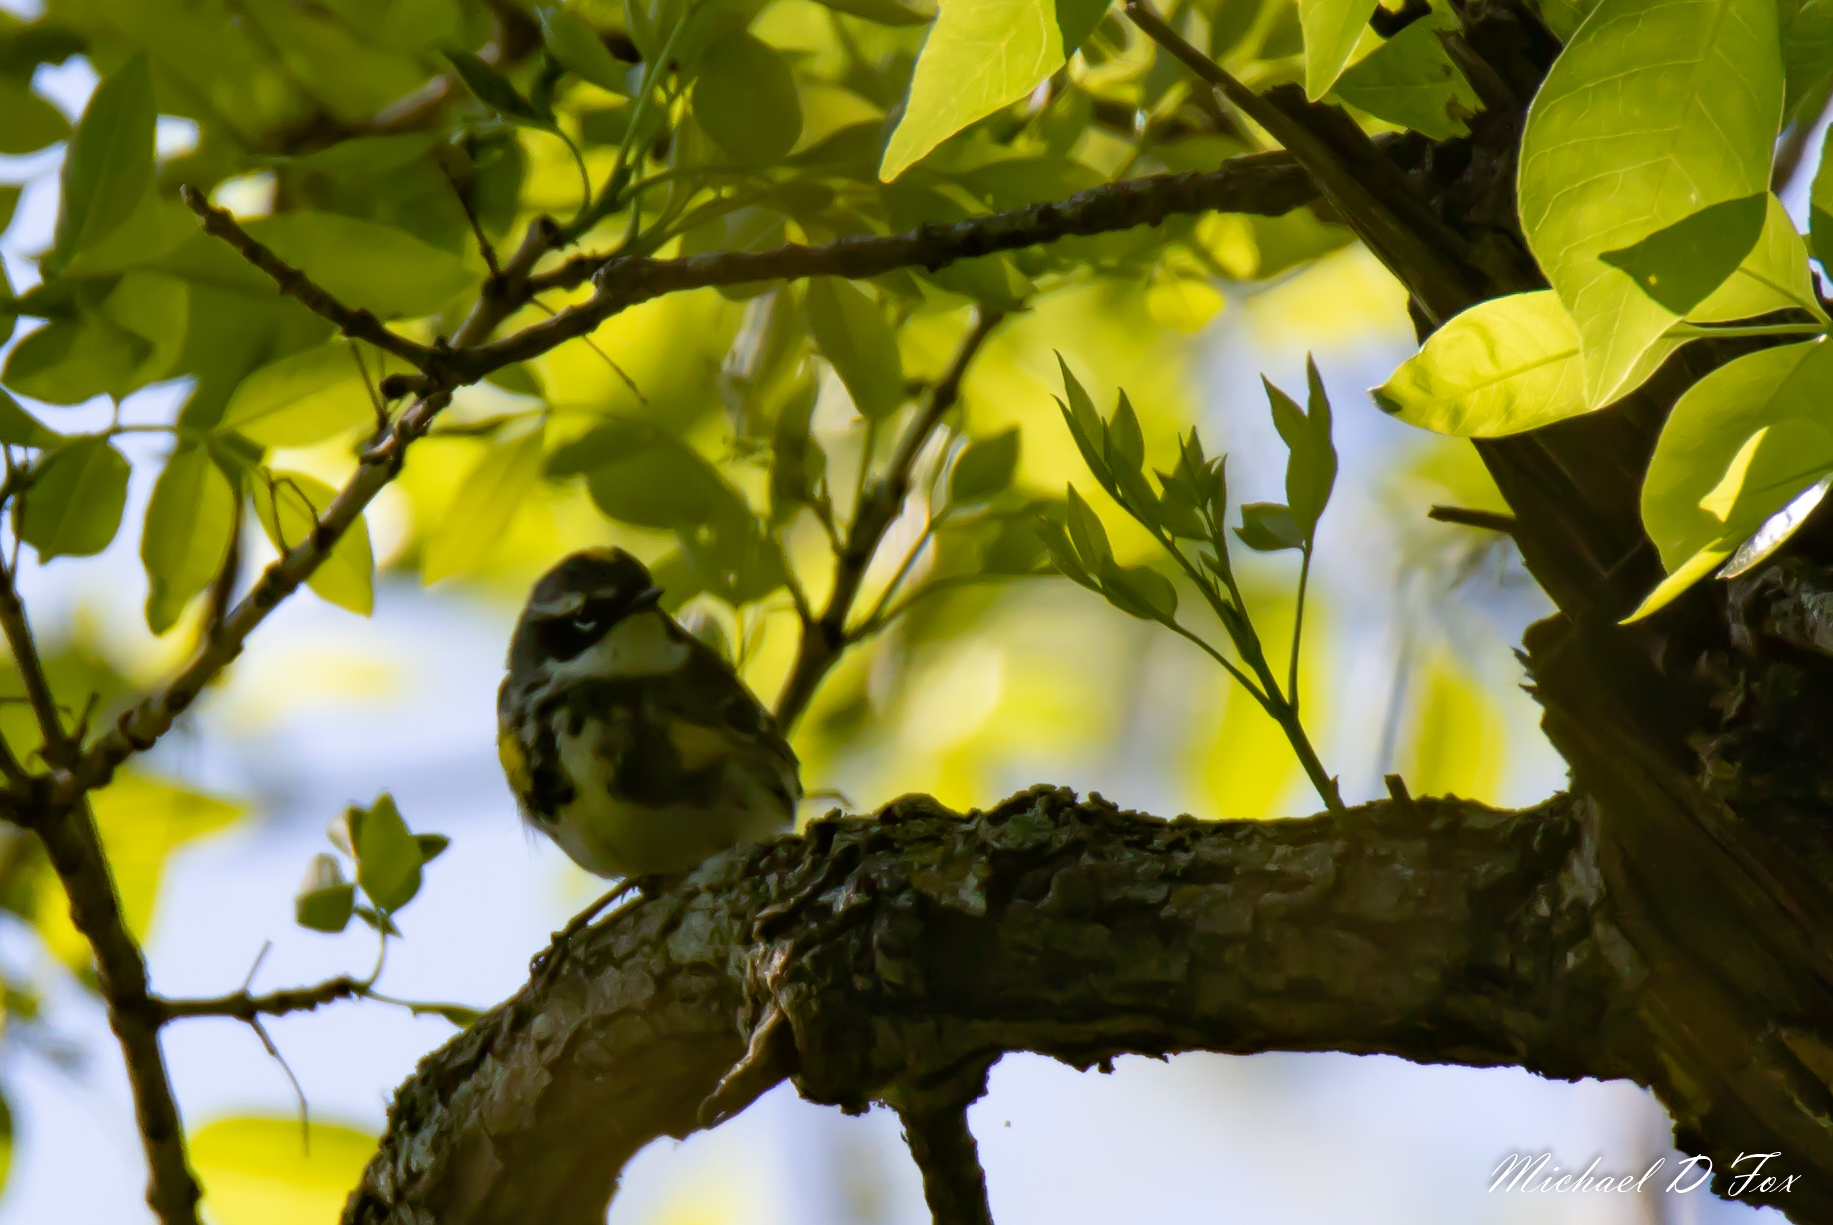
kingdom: Animalia
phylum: Chordata
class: Aves
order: Passeriformes
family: Parulidae
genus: Setophaga
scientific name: Setophaga coronata
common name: Myrtle warbler
